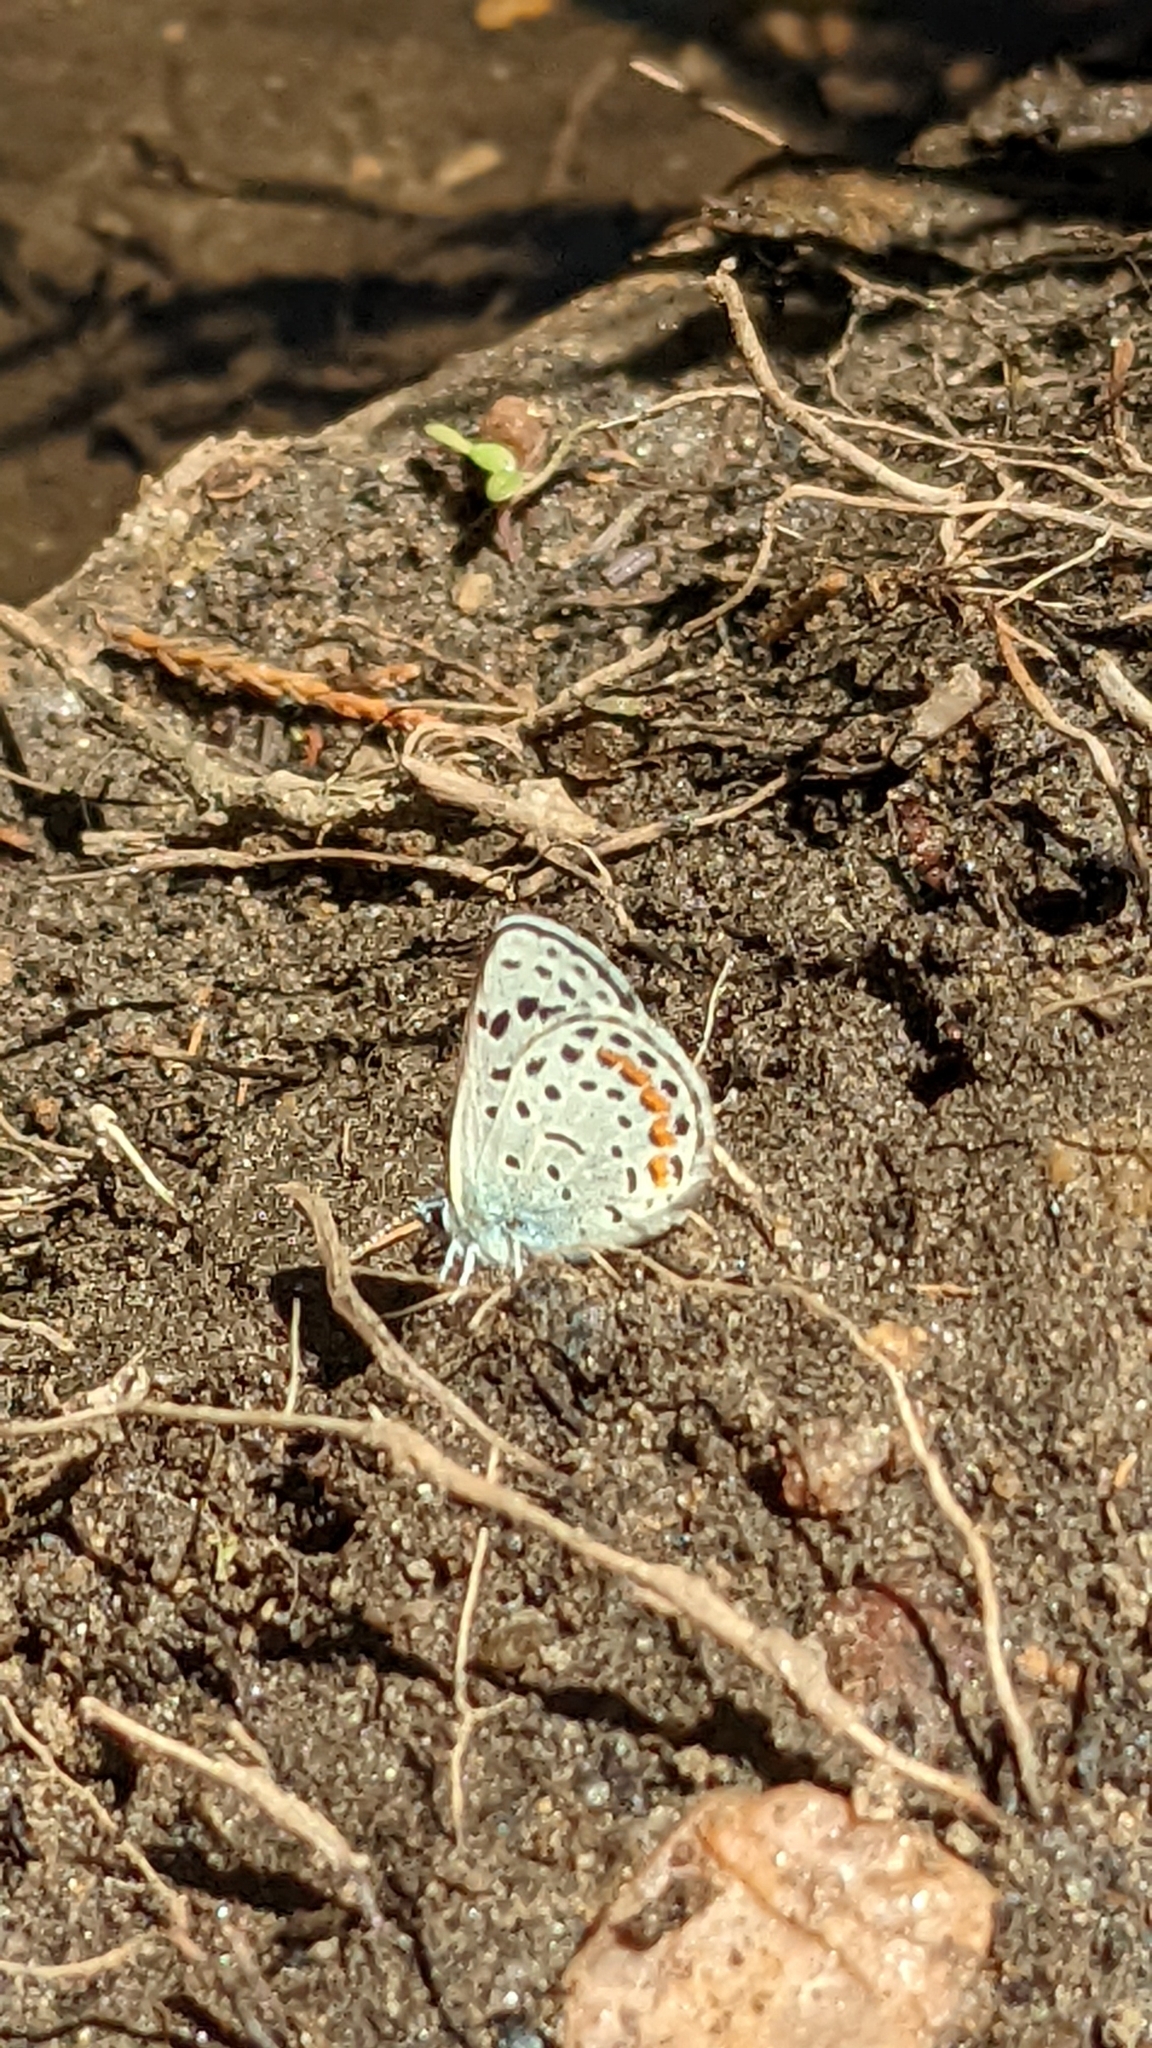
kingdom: Animalia
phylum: Arthropoda
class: Insecta
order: Lepidoptera
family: Lycaenidae
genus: Euphilotes
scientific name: Euphilotes enoptes
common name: Dotted blue
